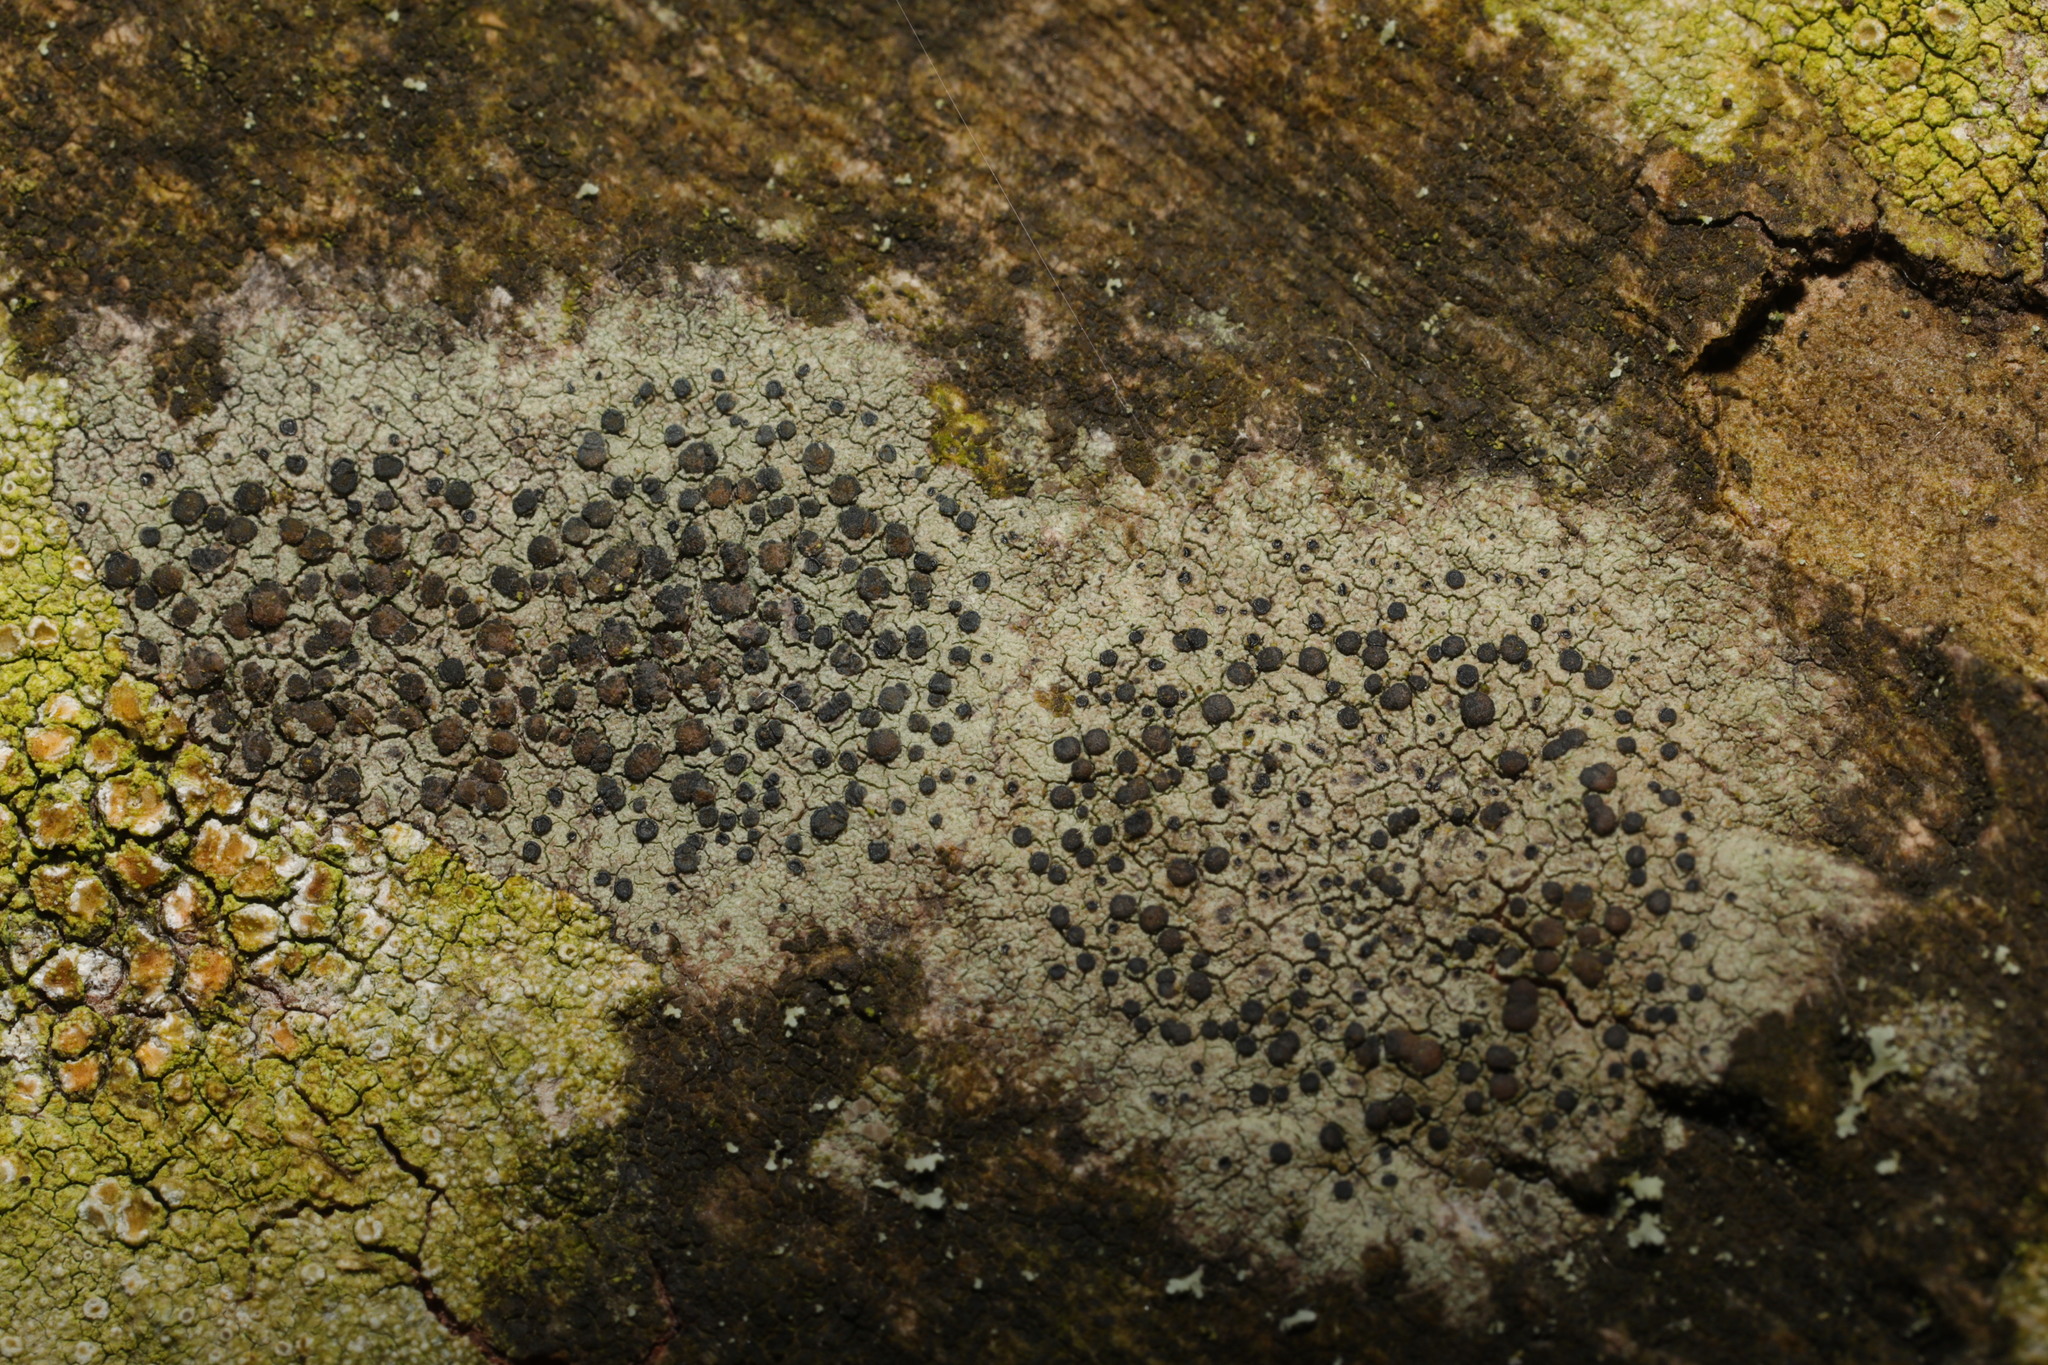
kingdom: Fungi
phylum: Ascomycota
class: Lecanoromycetes
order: Lecanorales
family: Lecanoraceae
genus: Lecidella
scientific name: Lecidella elaeochroma
